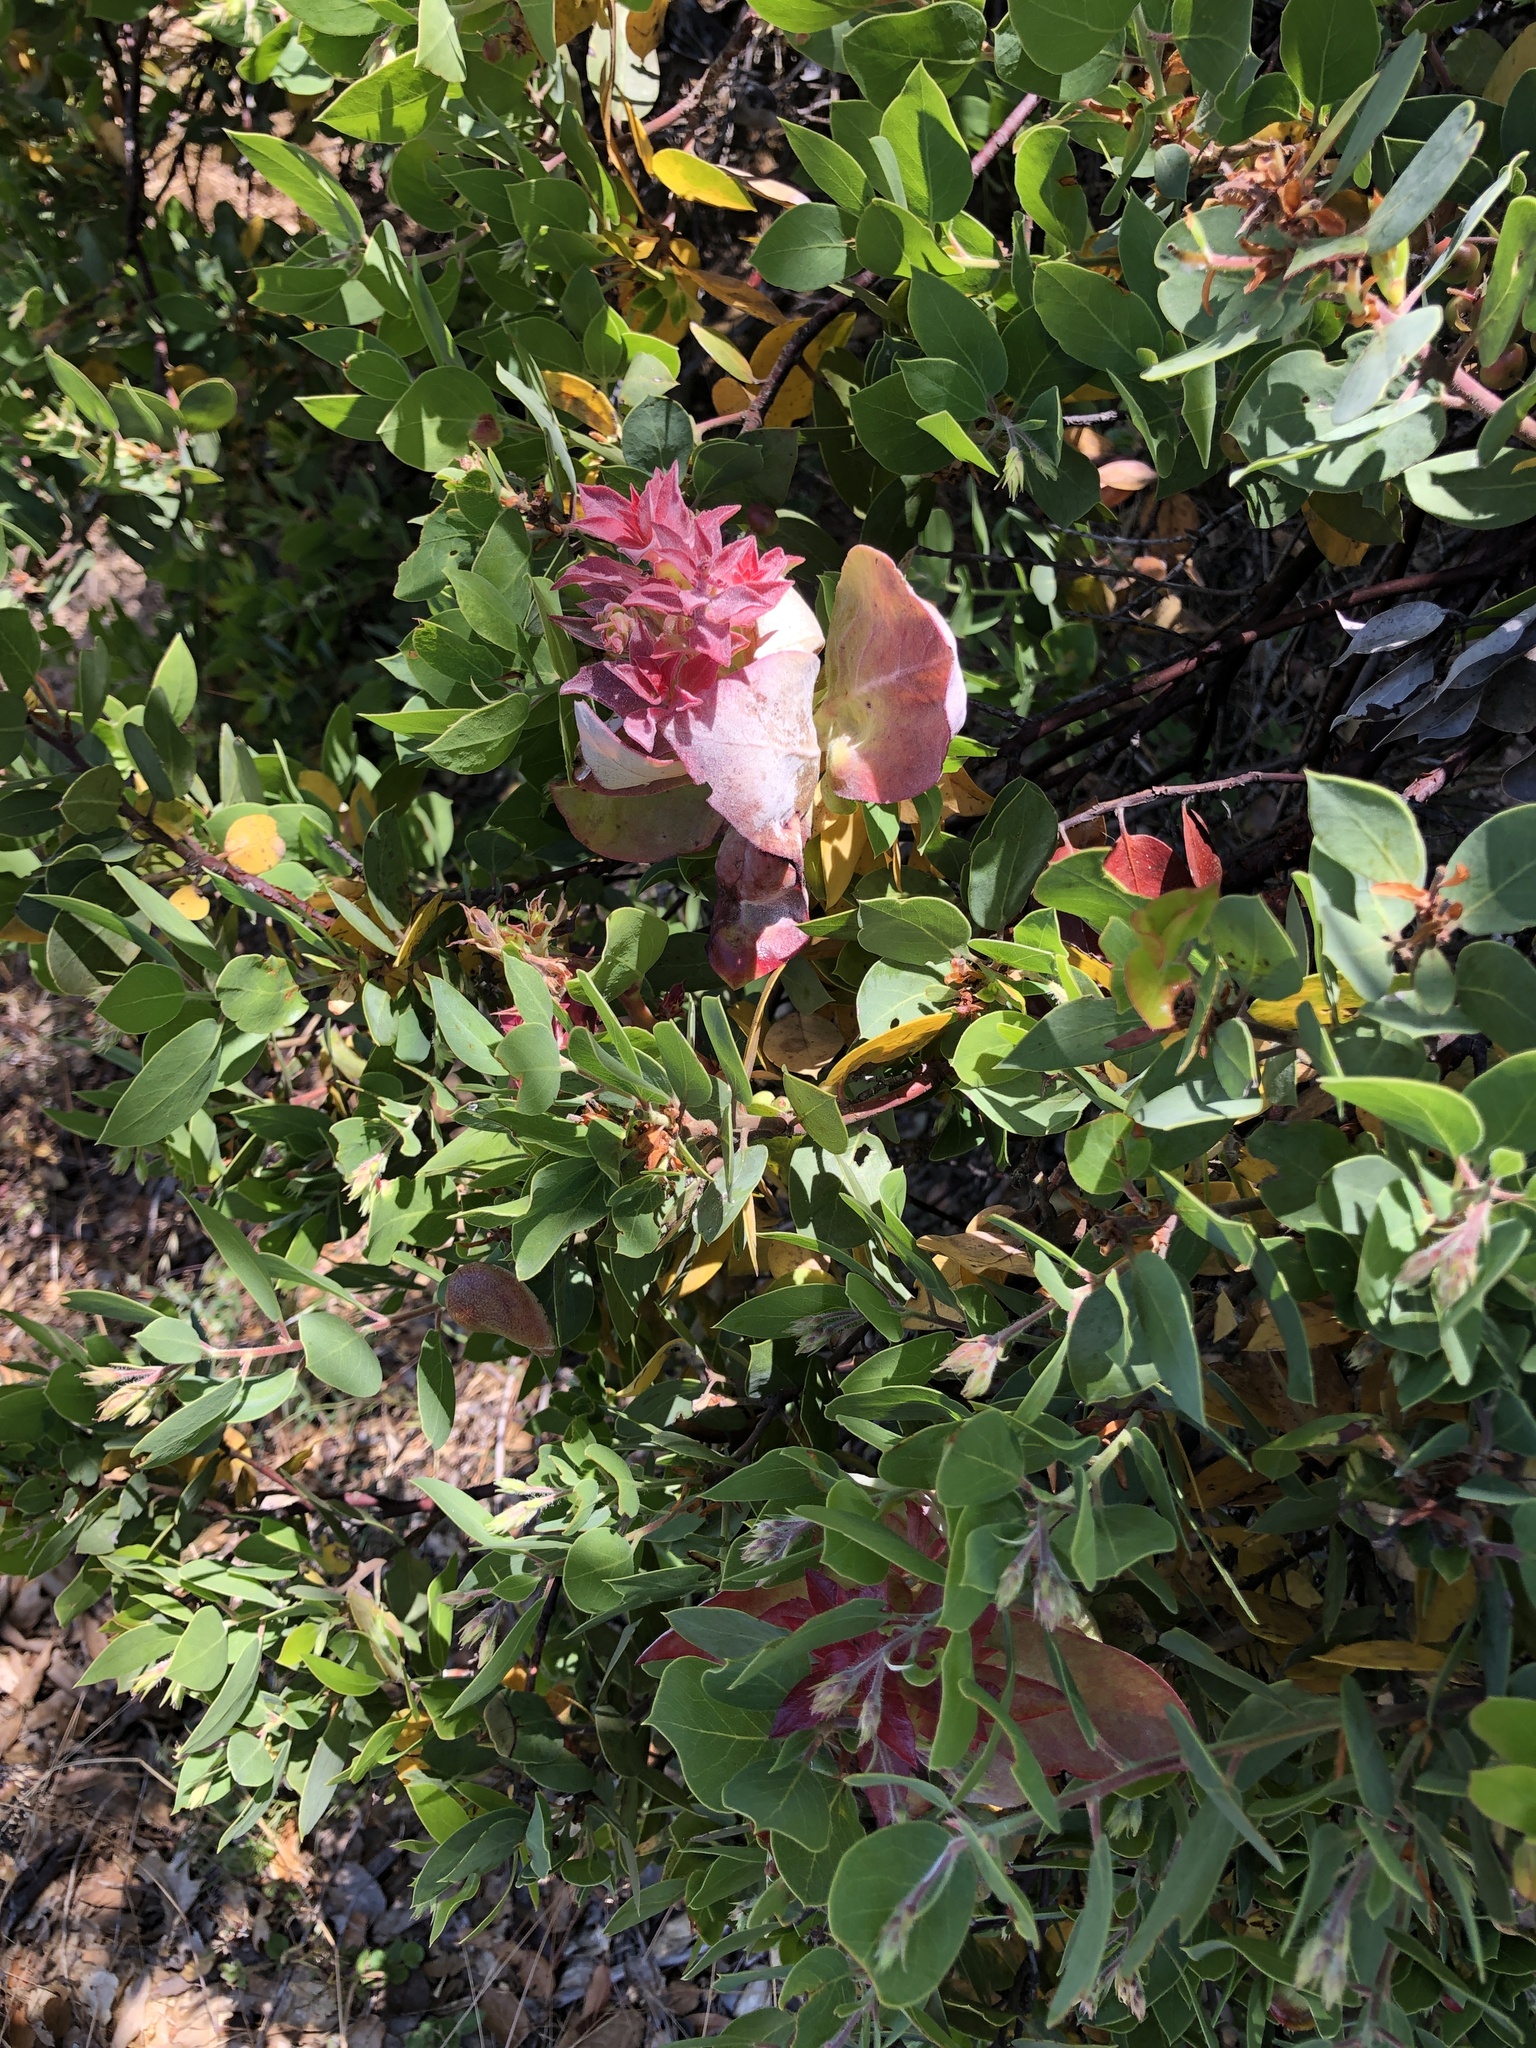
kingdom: Fungi
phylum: Basidiomycota
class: Exobasidiomycetes
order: Exobasidiales
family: Exobasidiaceae
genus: Exobasidium
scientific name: Exobasidium arctostaphyli
